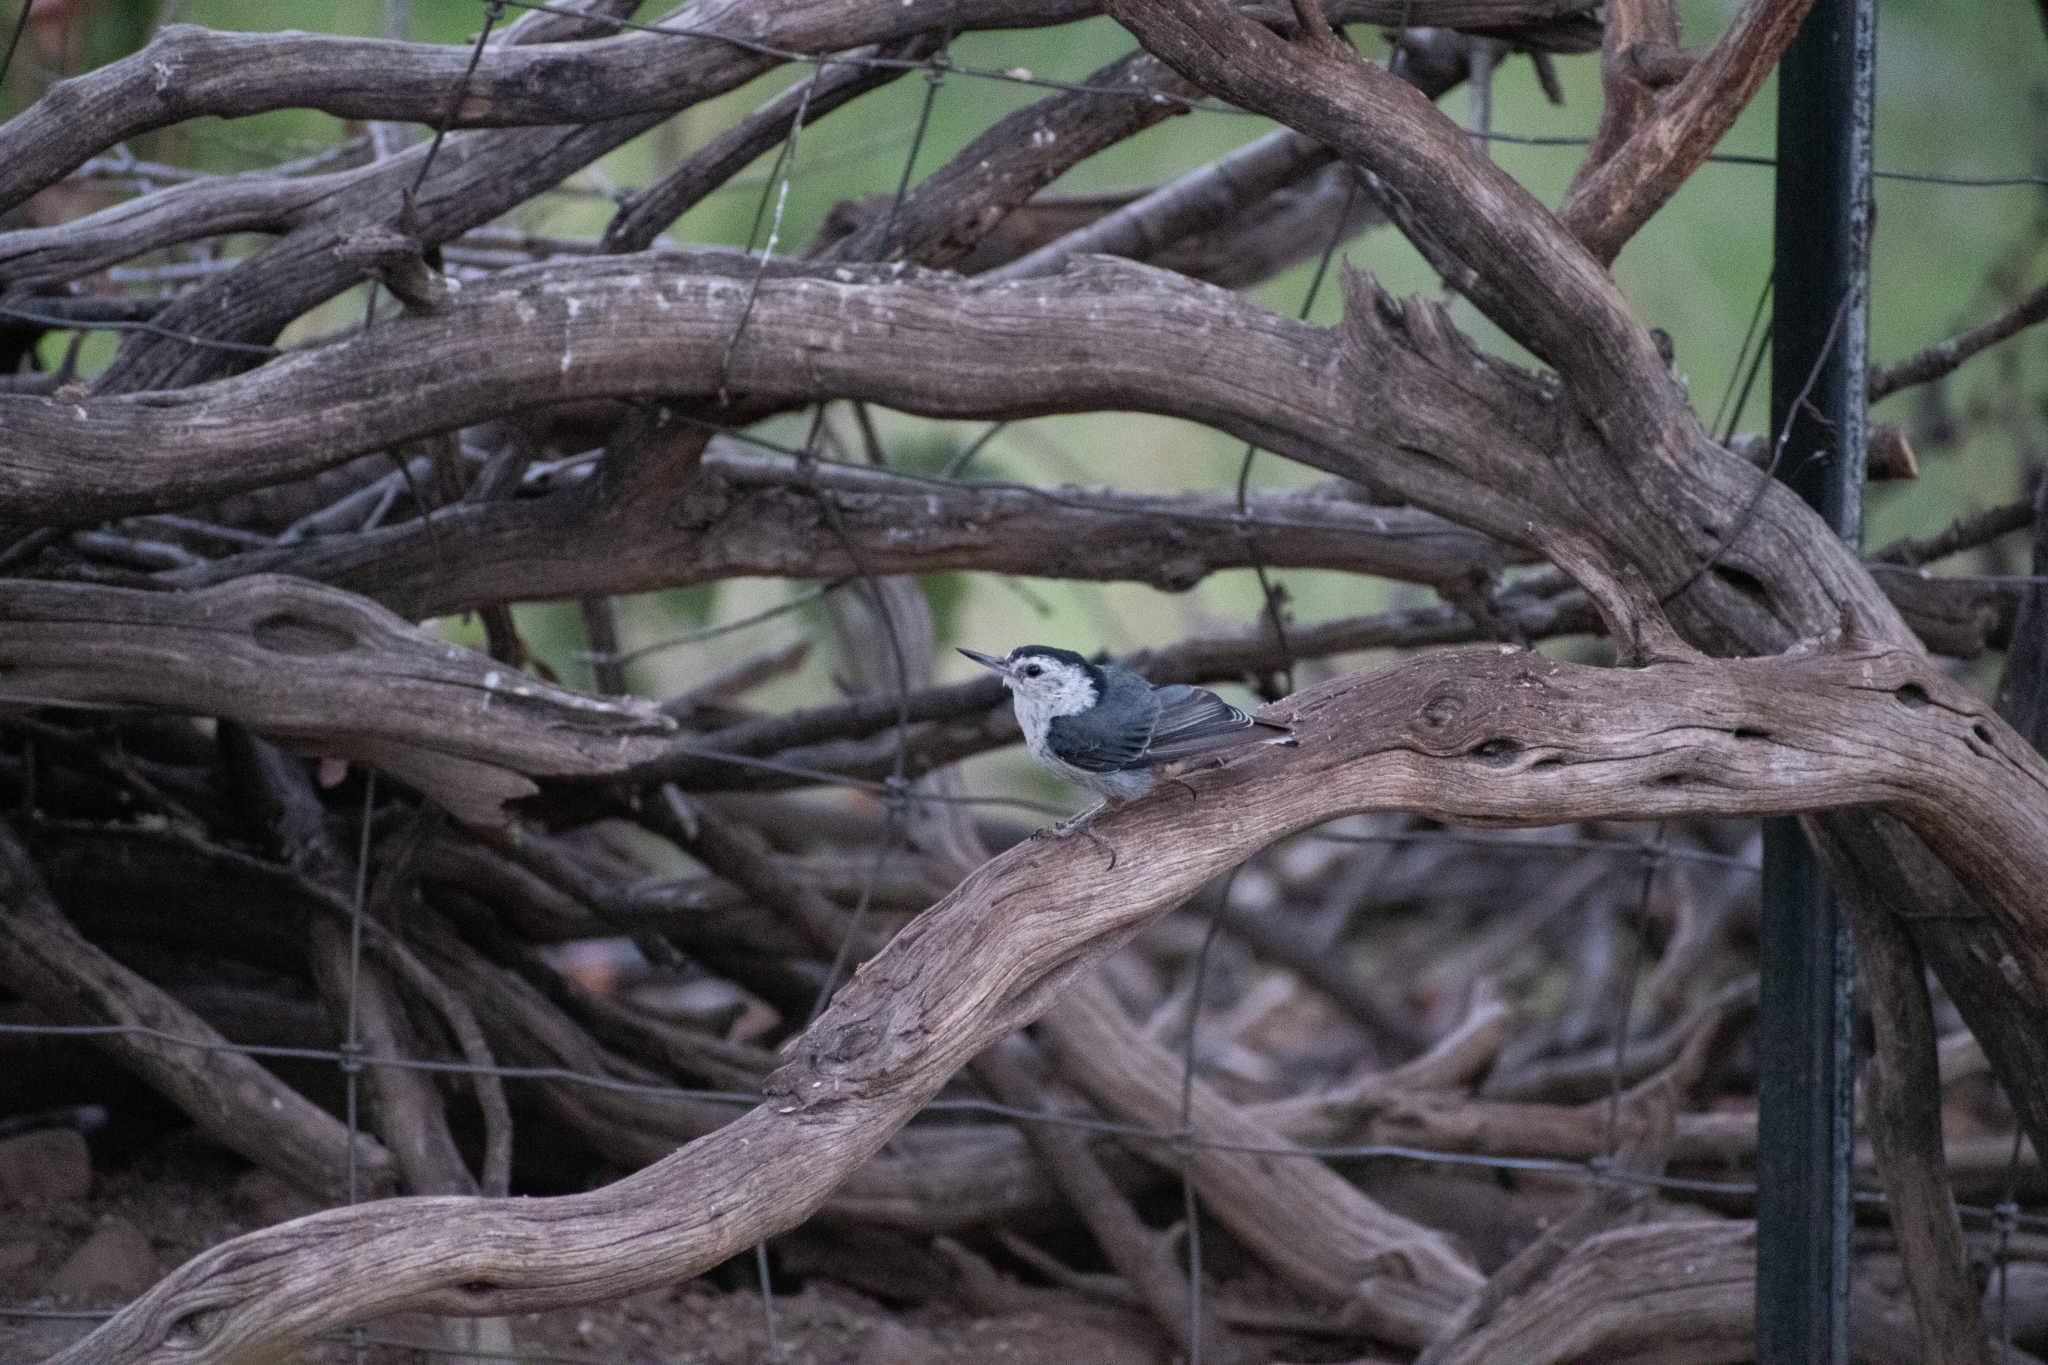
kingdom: Animalia
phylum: Chordata
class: Aves
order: Passeriformes
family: Sittidae
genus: Sitta
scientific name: Sitta carolinensis
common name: White-breasted nuthatch
